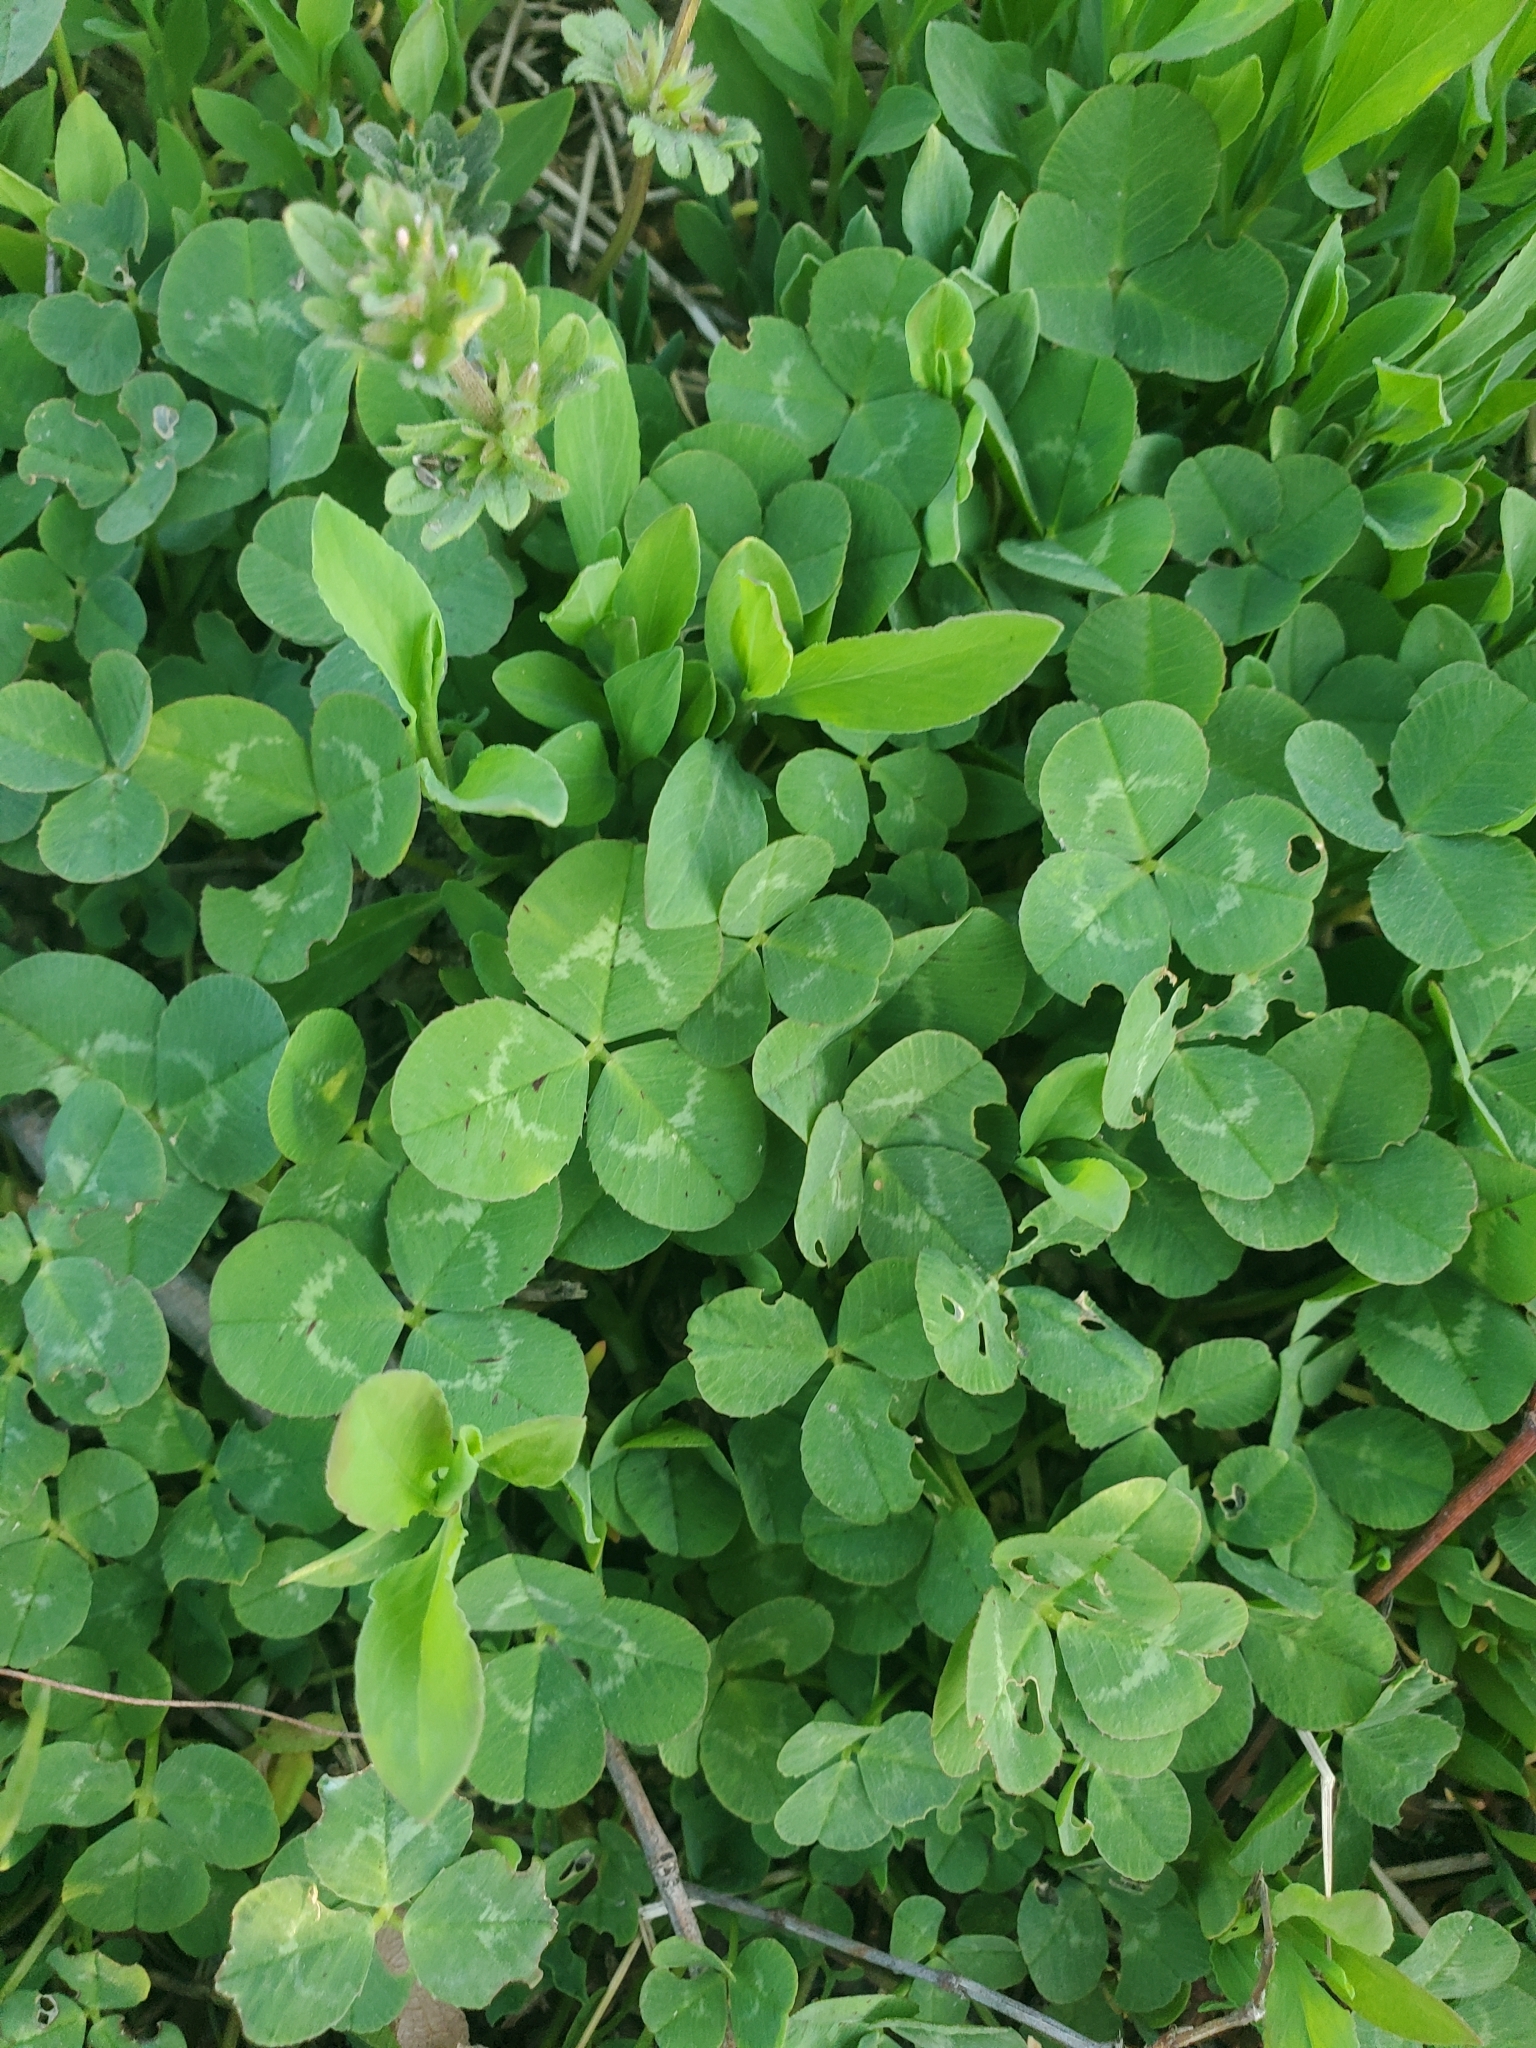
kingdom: Plantae
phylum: Tracheophyta
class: Magnoliopsida
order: Fabales
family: Fabaceae
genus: Trifolium
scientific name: Trifolium repens
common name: White clover
